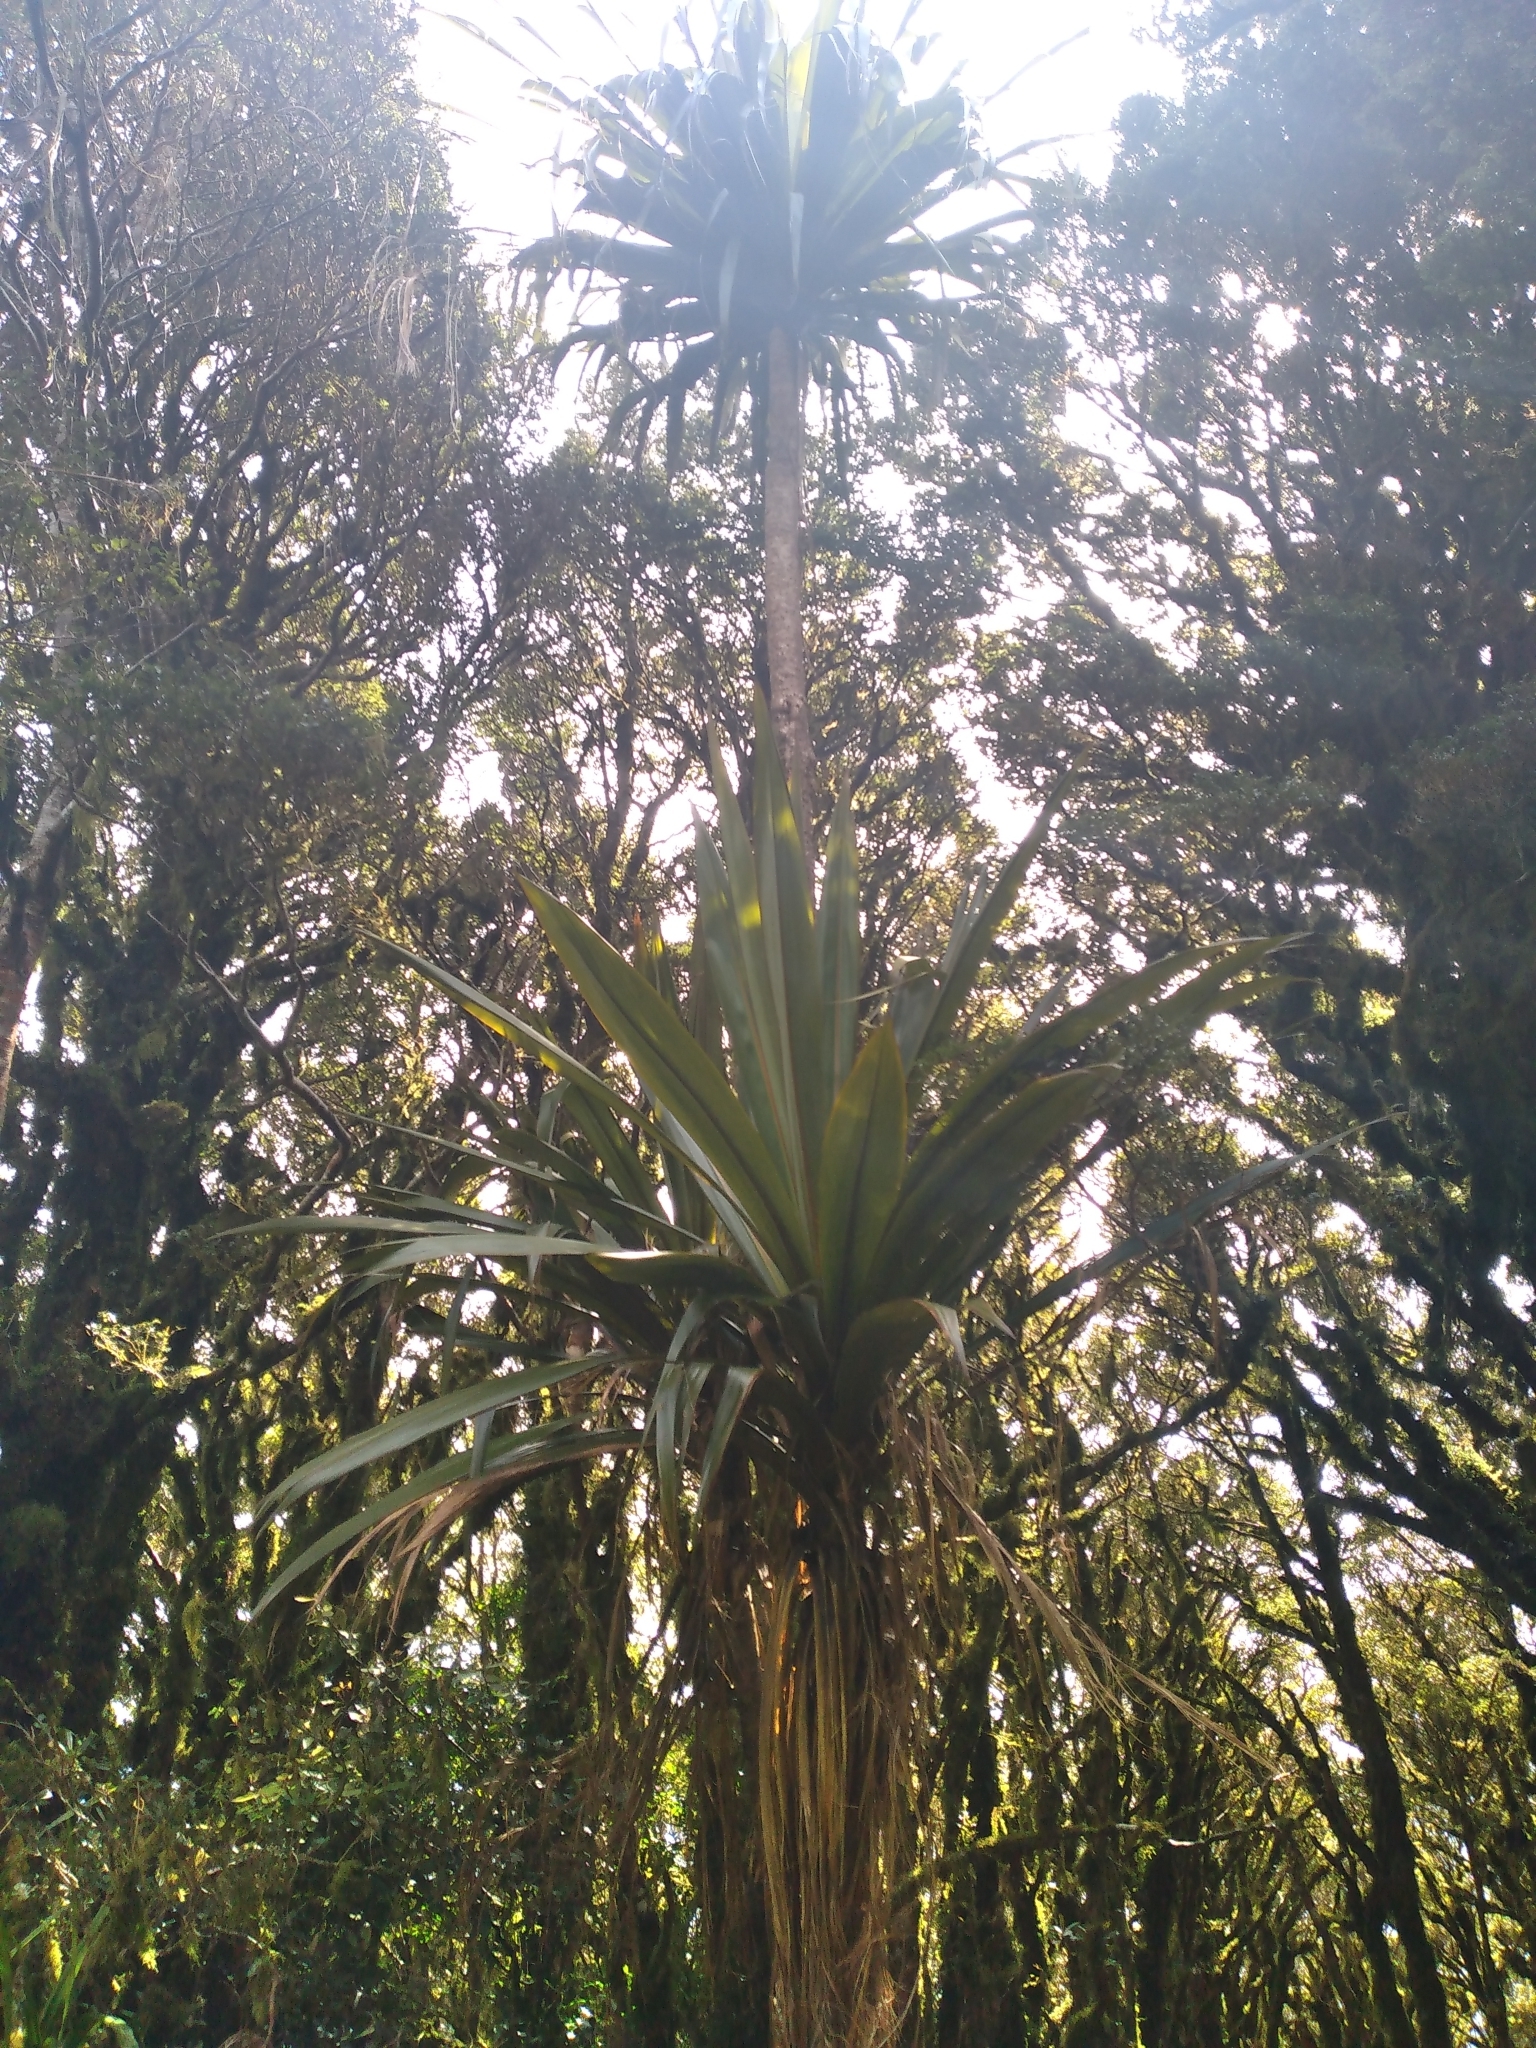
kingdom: Plantae
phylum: Tracheophyta
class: Liliopsida
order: Asparagales
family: Asparagaceae
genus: Cordyline
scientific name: Cordyline indivisa
